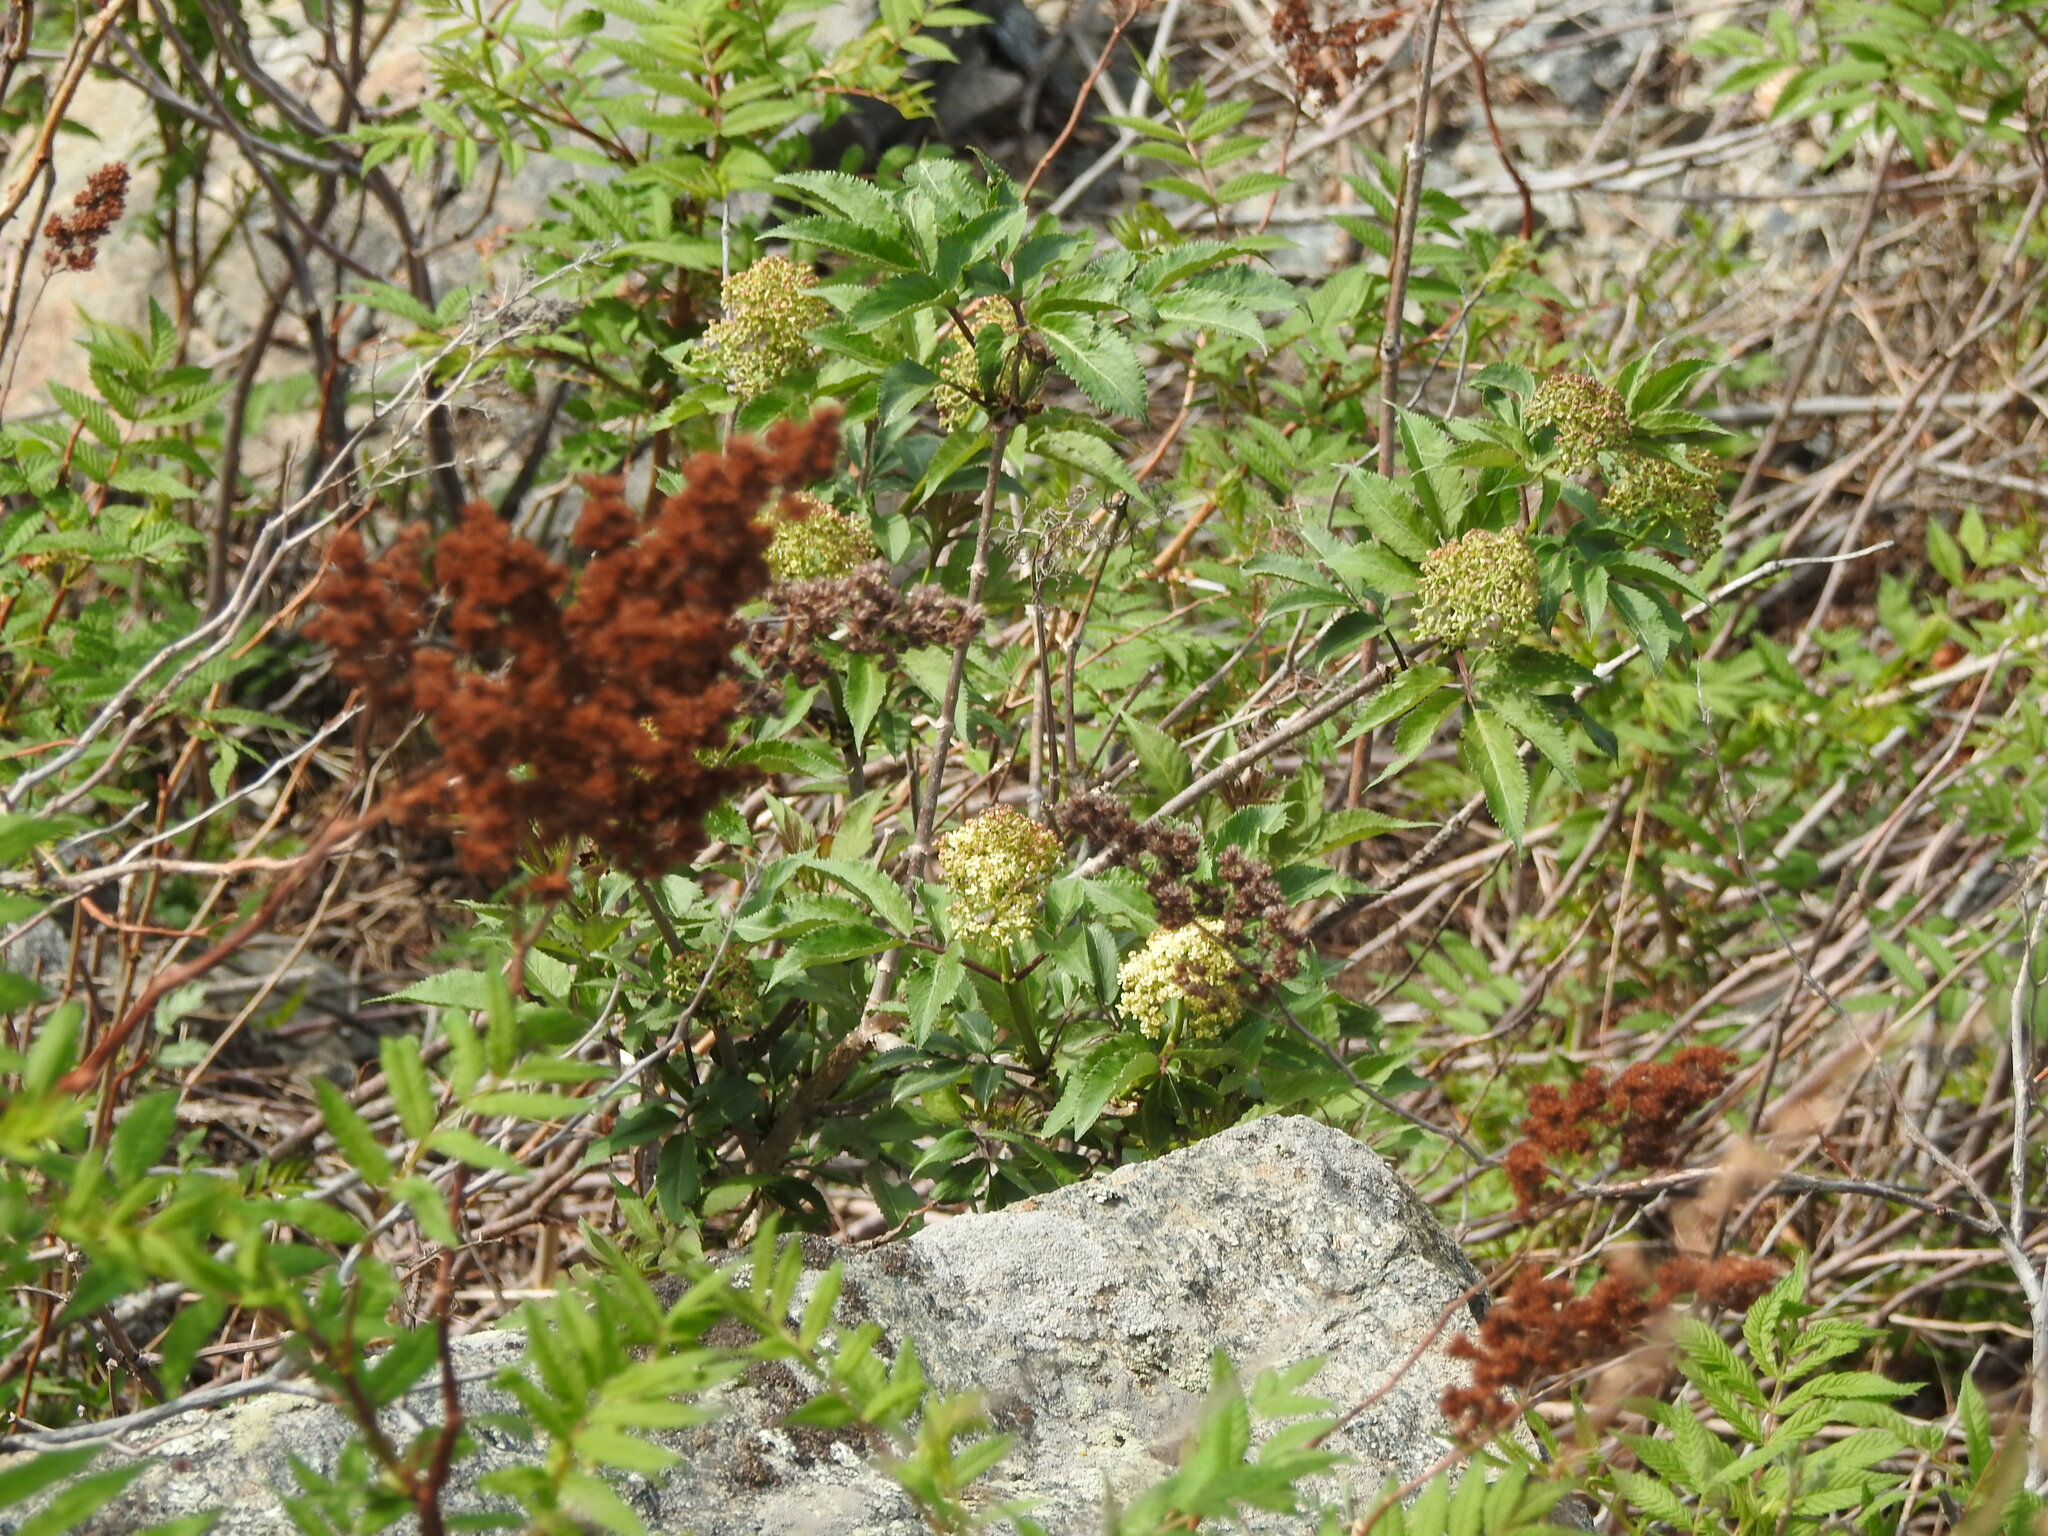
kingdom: Plantae
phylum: Tracheophyta
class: Magnoliopsida
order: Rosales
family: Rosaceae
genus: Sorbaria
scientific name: Sorbaria sorbifolia
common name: False spiraea
